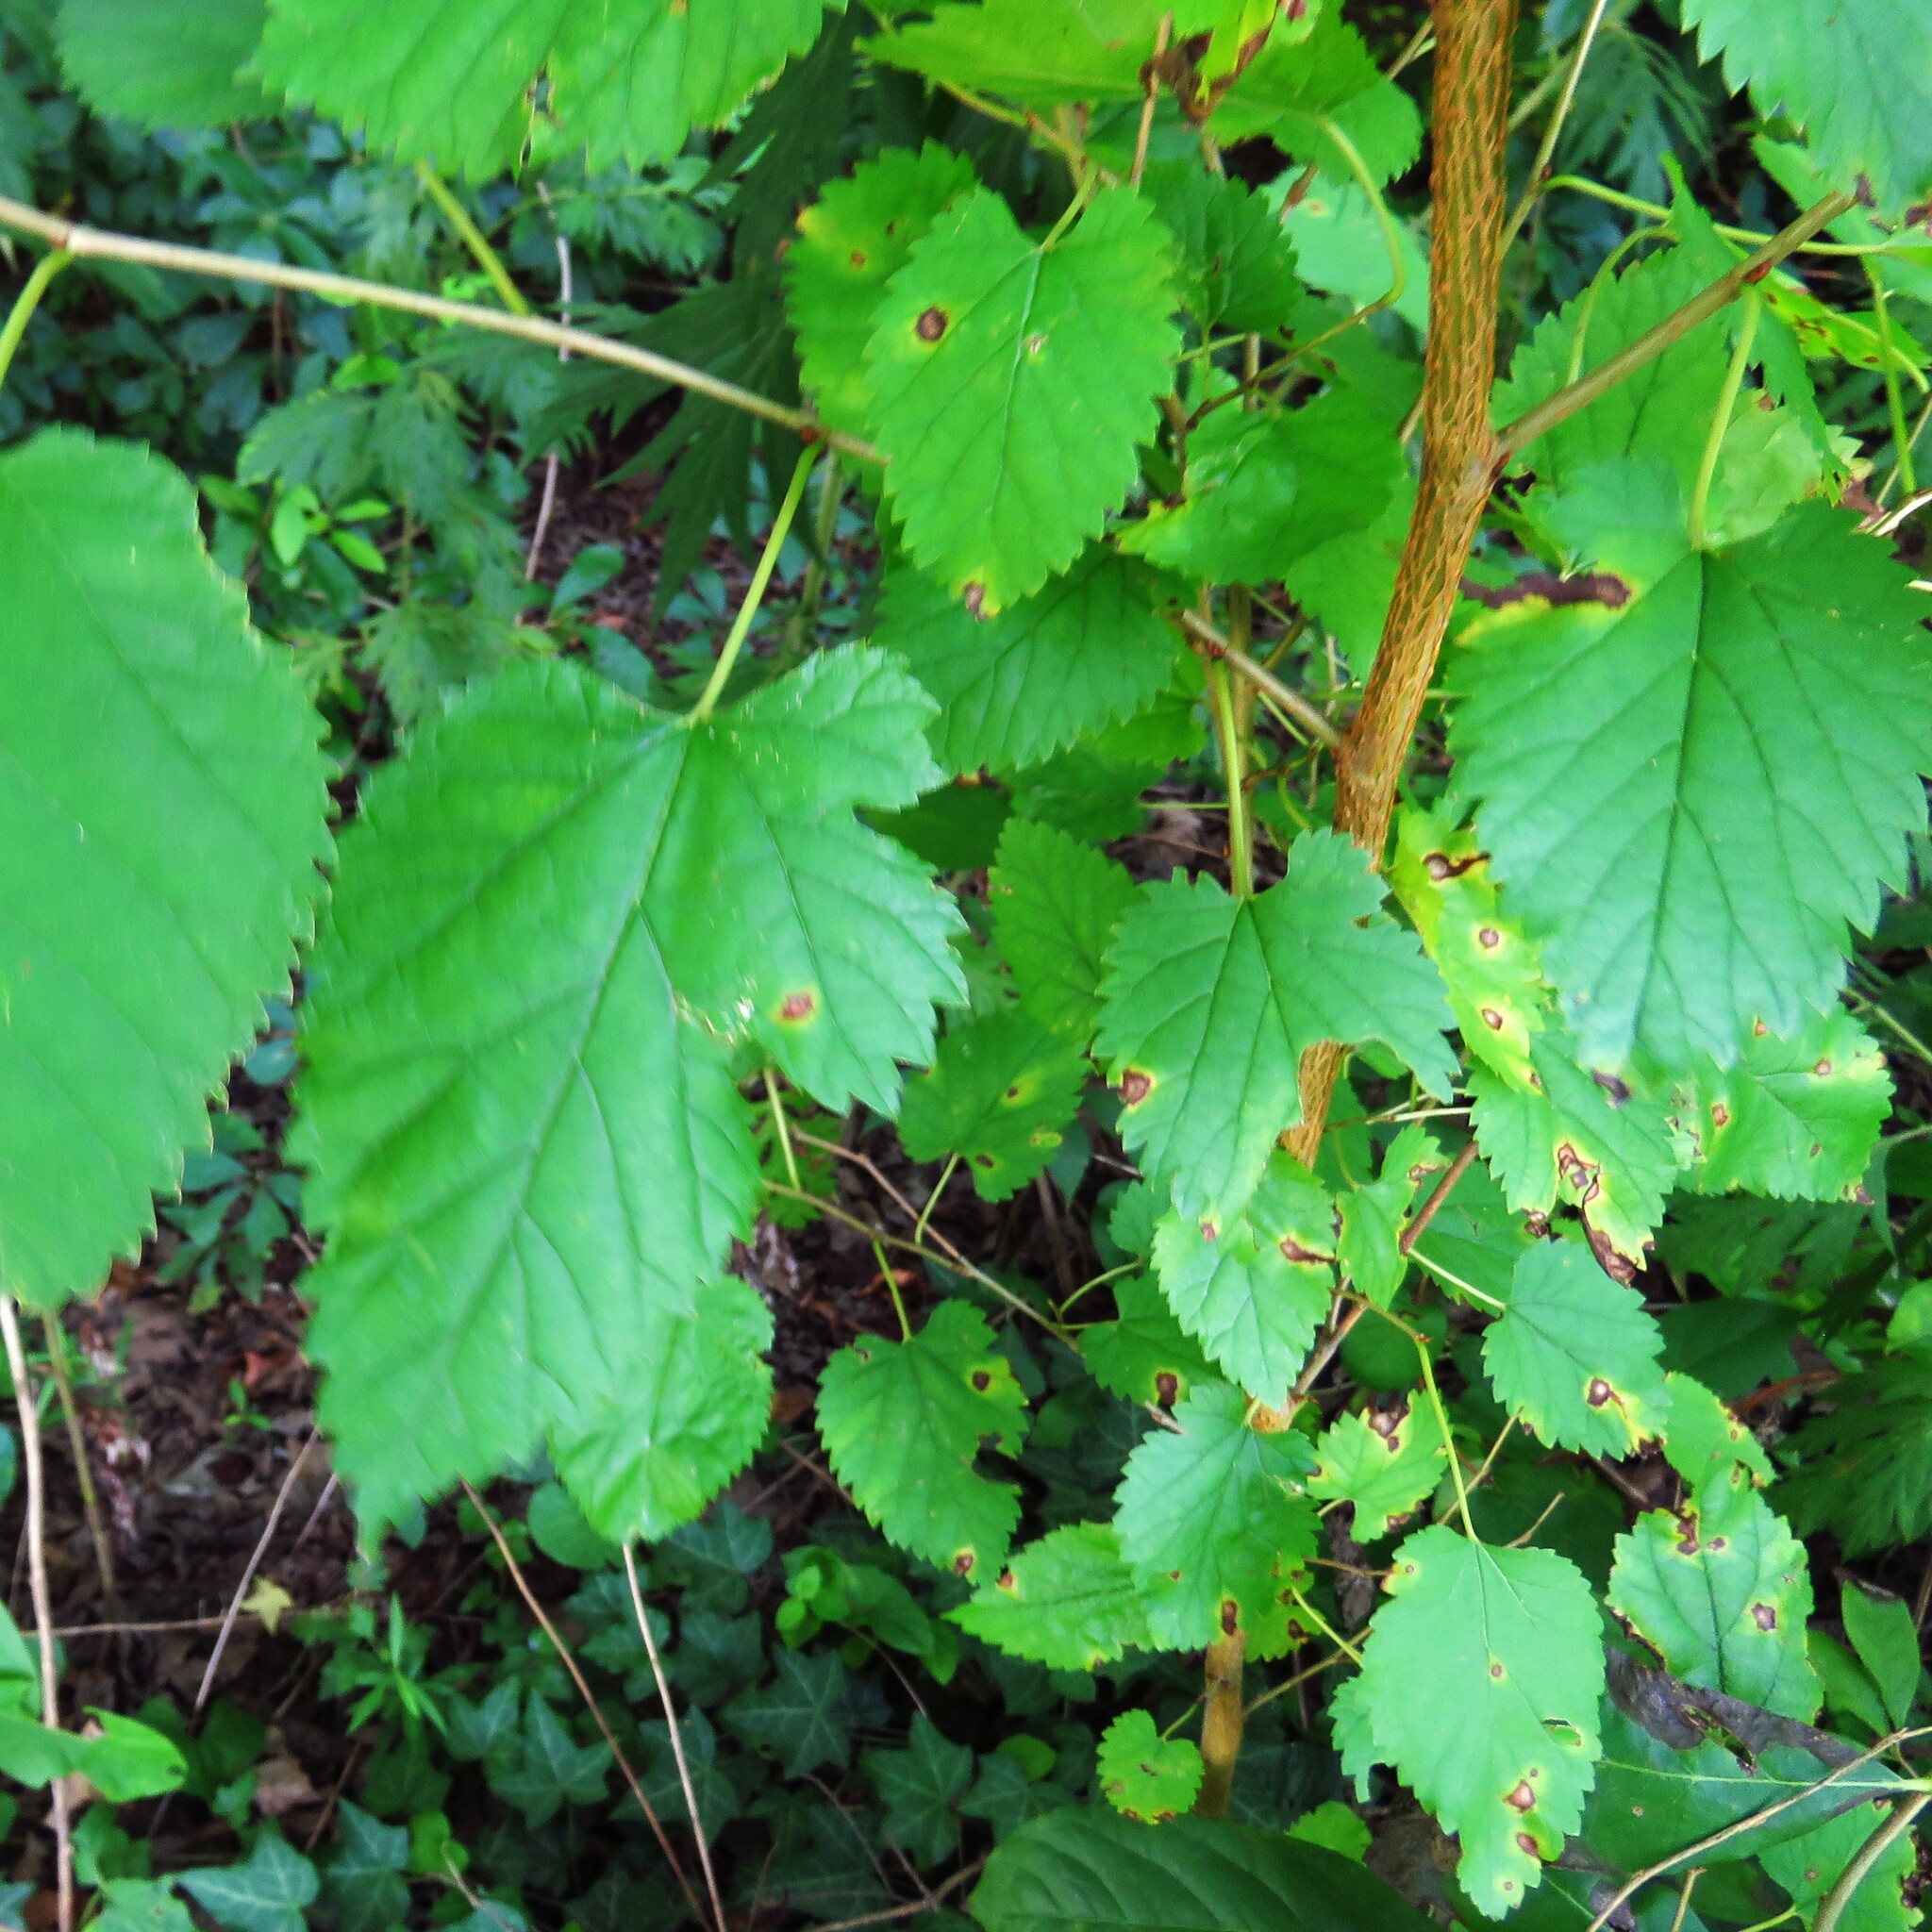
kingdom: Plantae
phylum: Tracheophyta
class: Magnoliopsida
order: Rosales
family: Moraceae
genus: Morus
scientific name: Morus alba
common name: White mulberry
